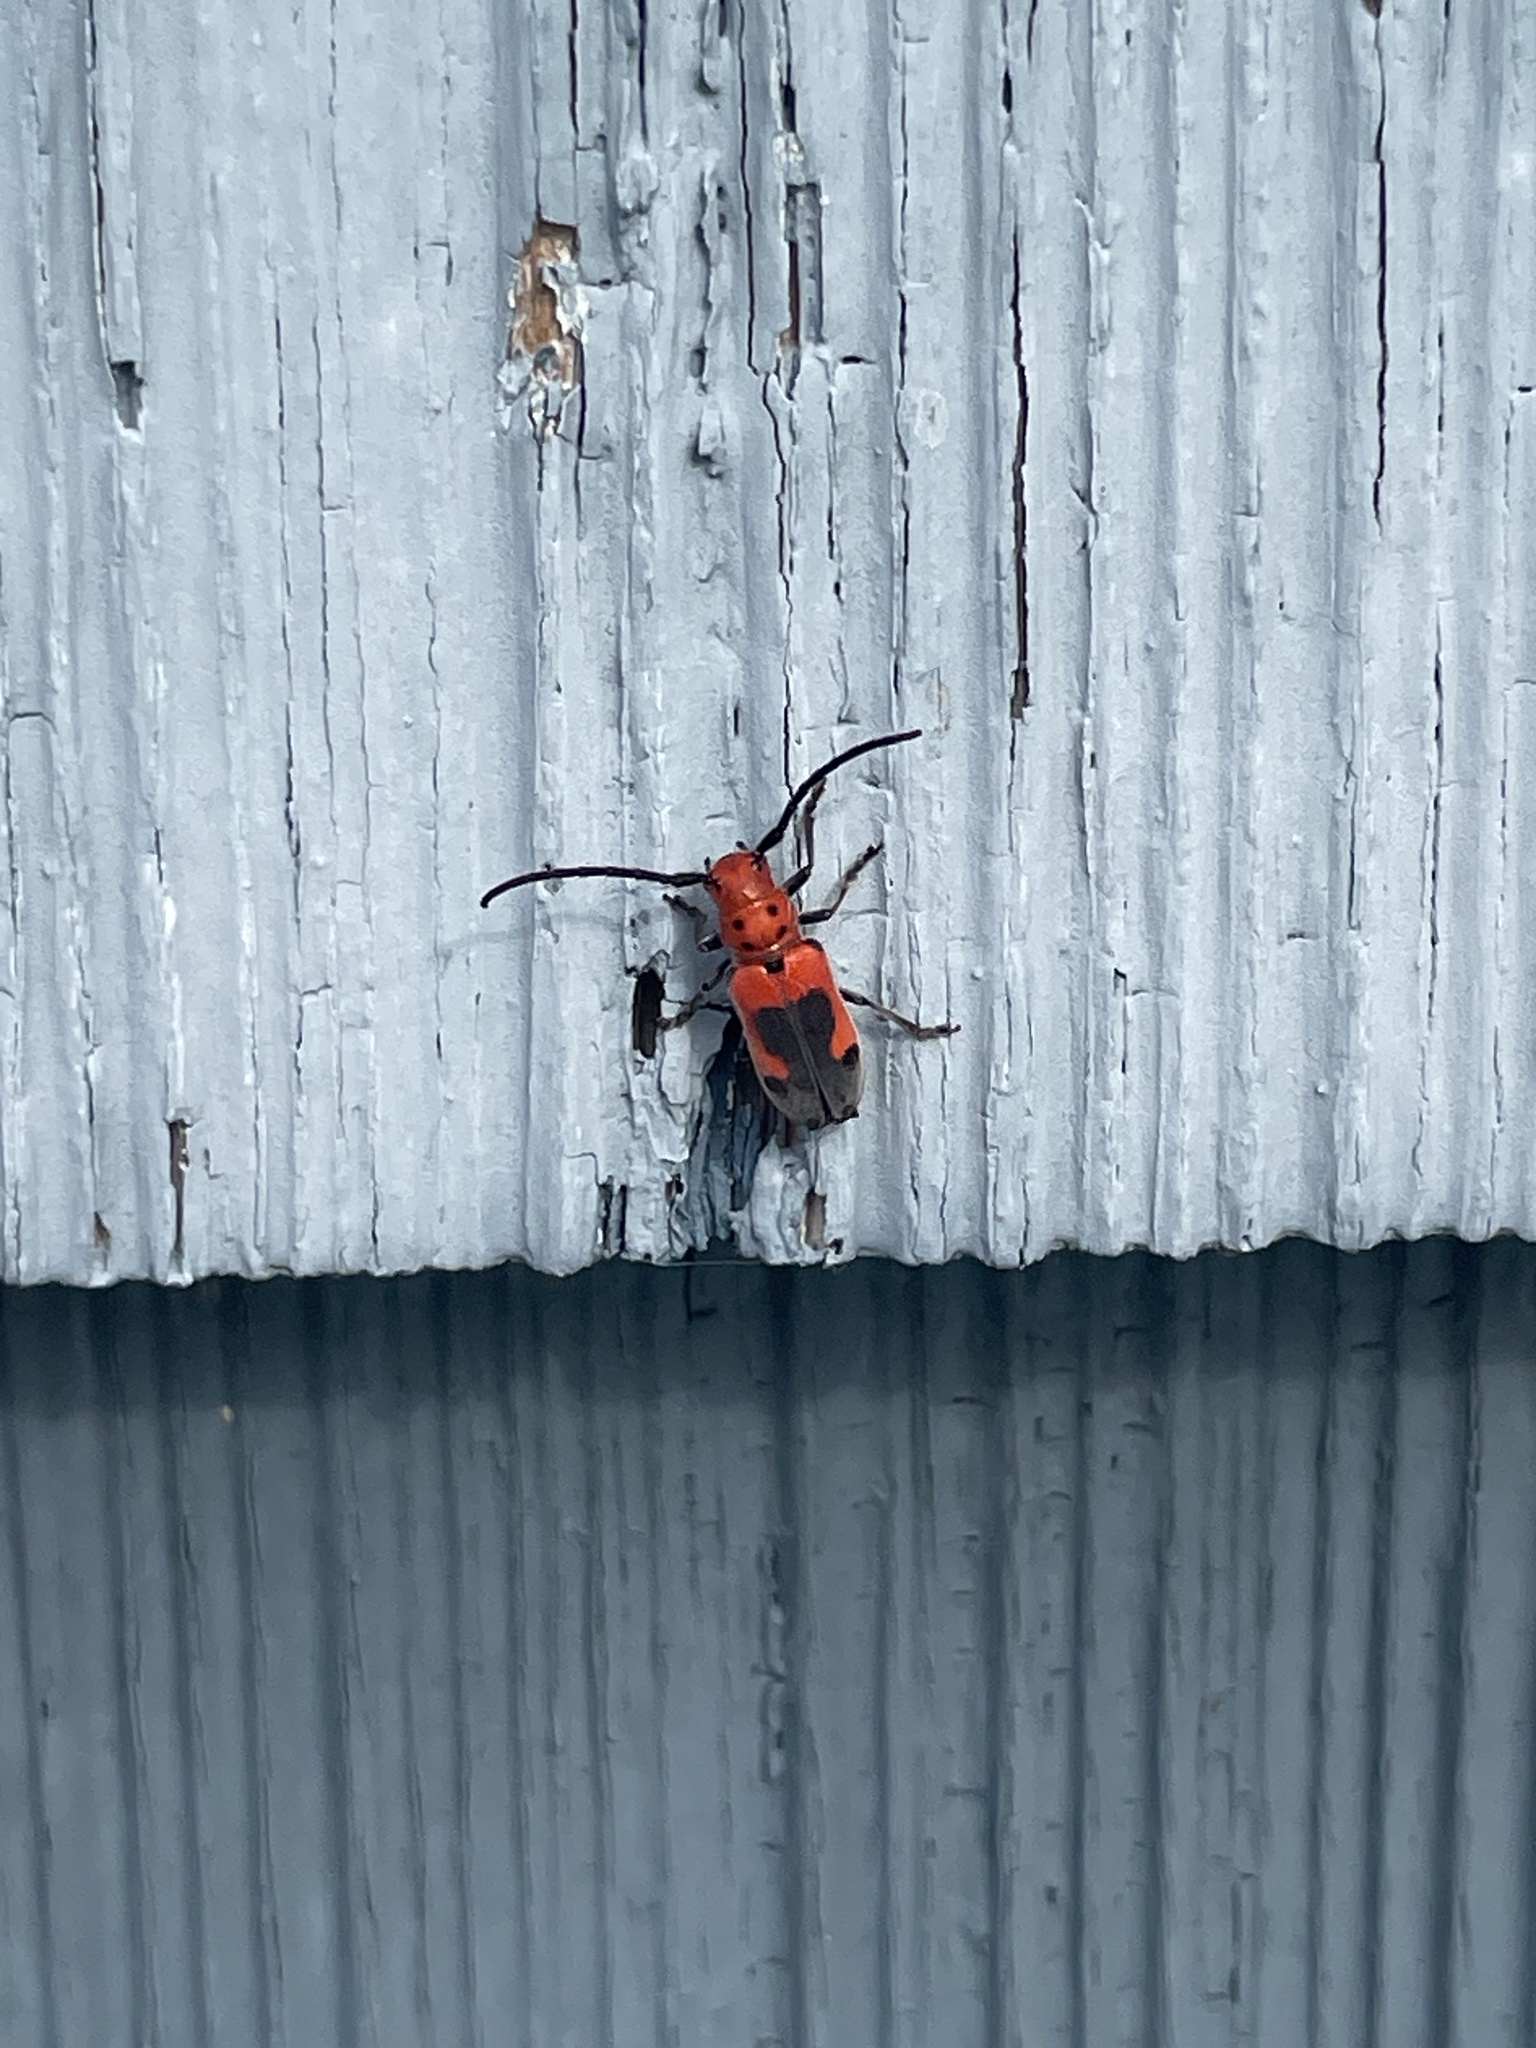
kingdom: Animalia
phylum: Arthropoda
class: Insecta
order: Coleoptera
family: Cerambycidae
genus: Tetraopes
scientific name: Tetraopes melanurus
